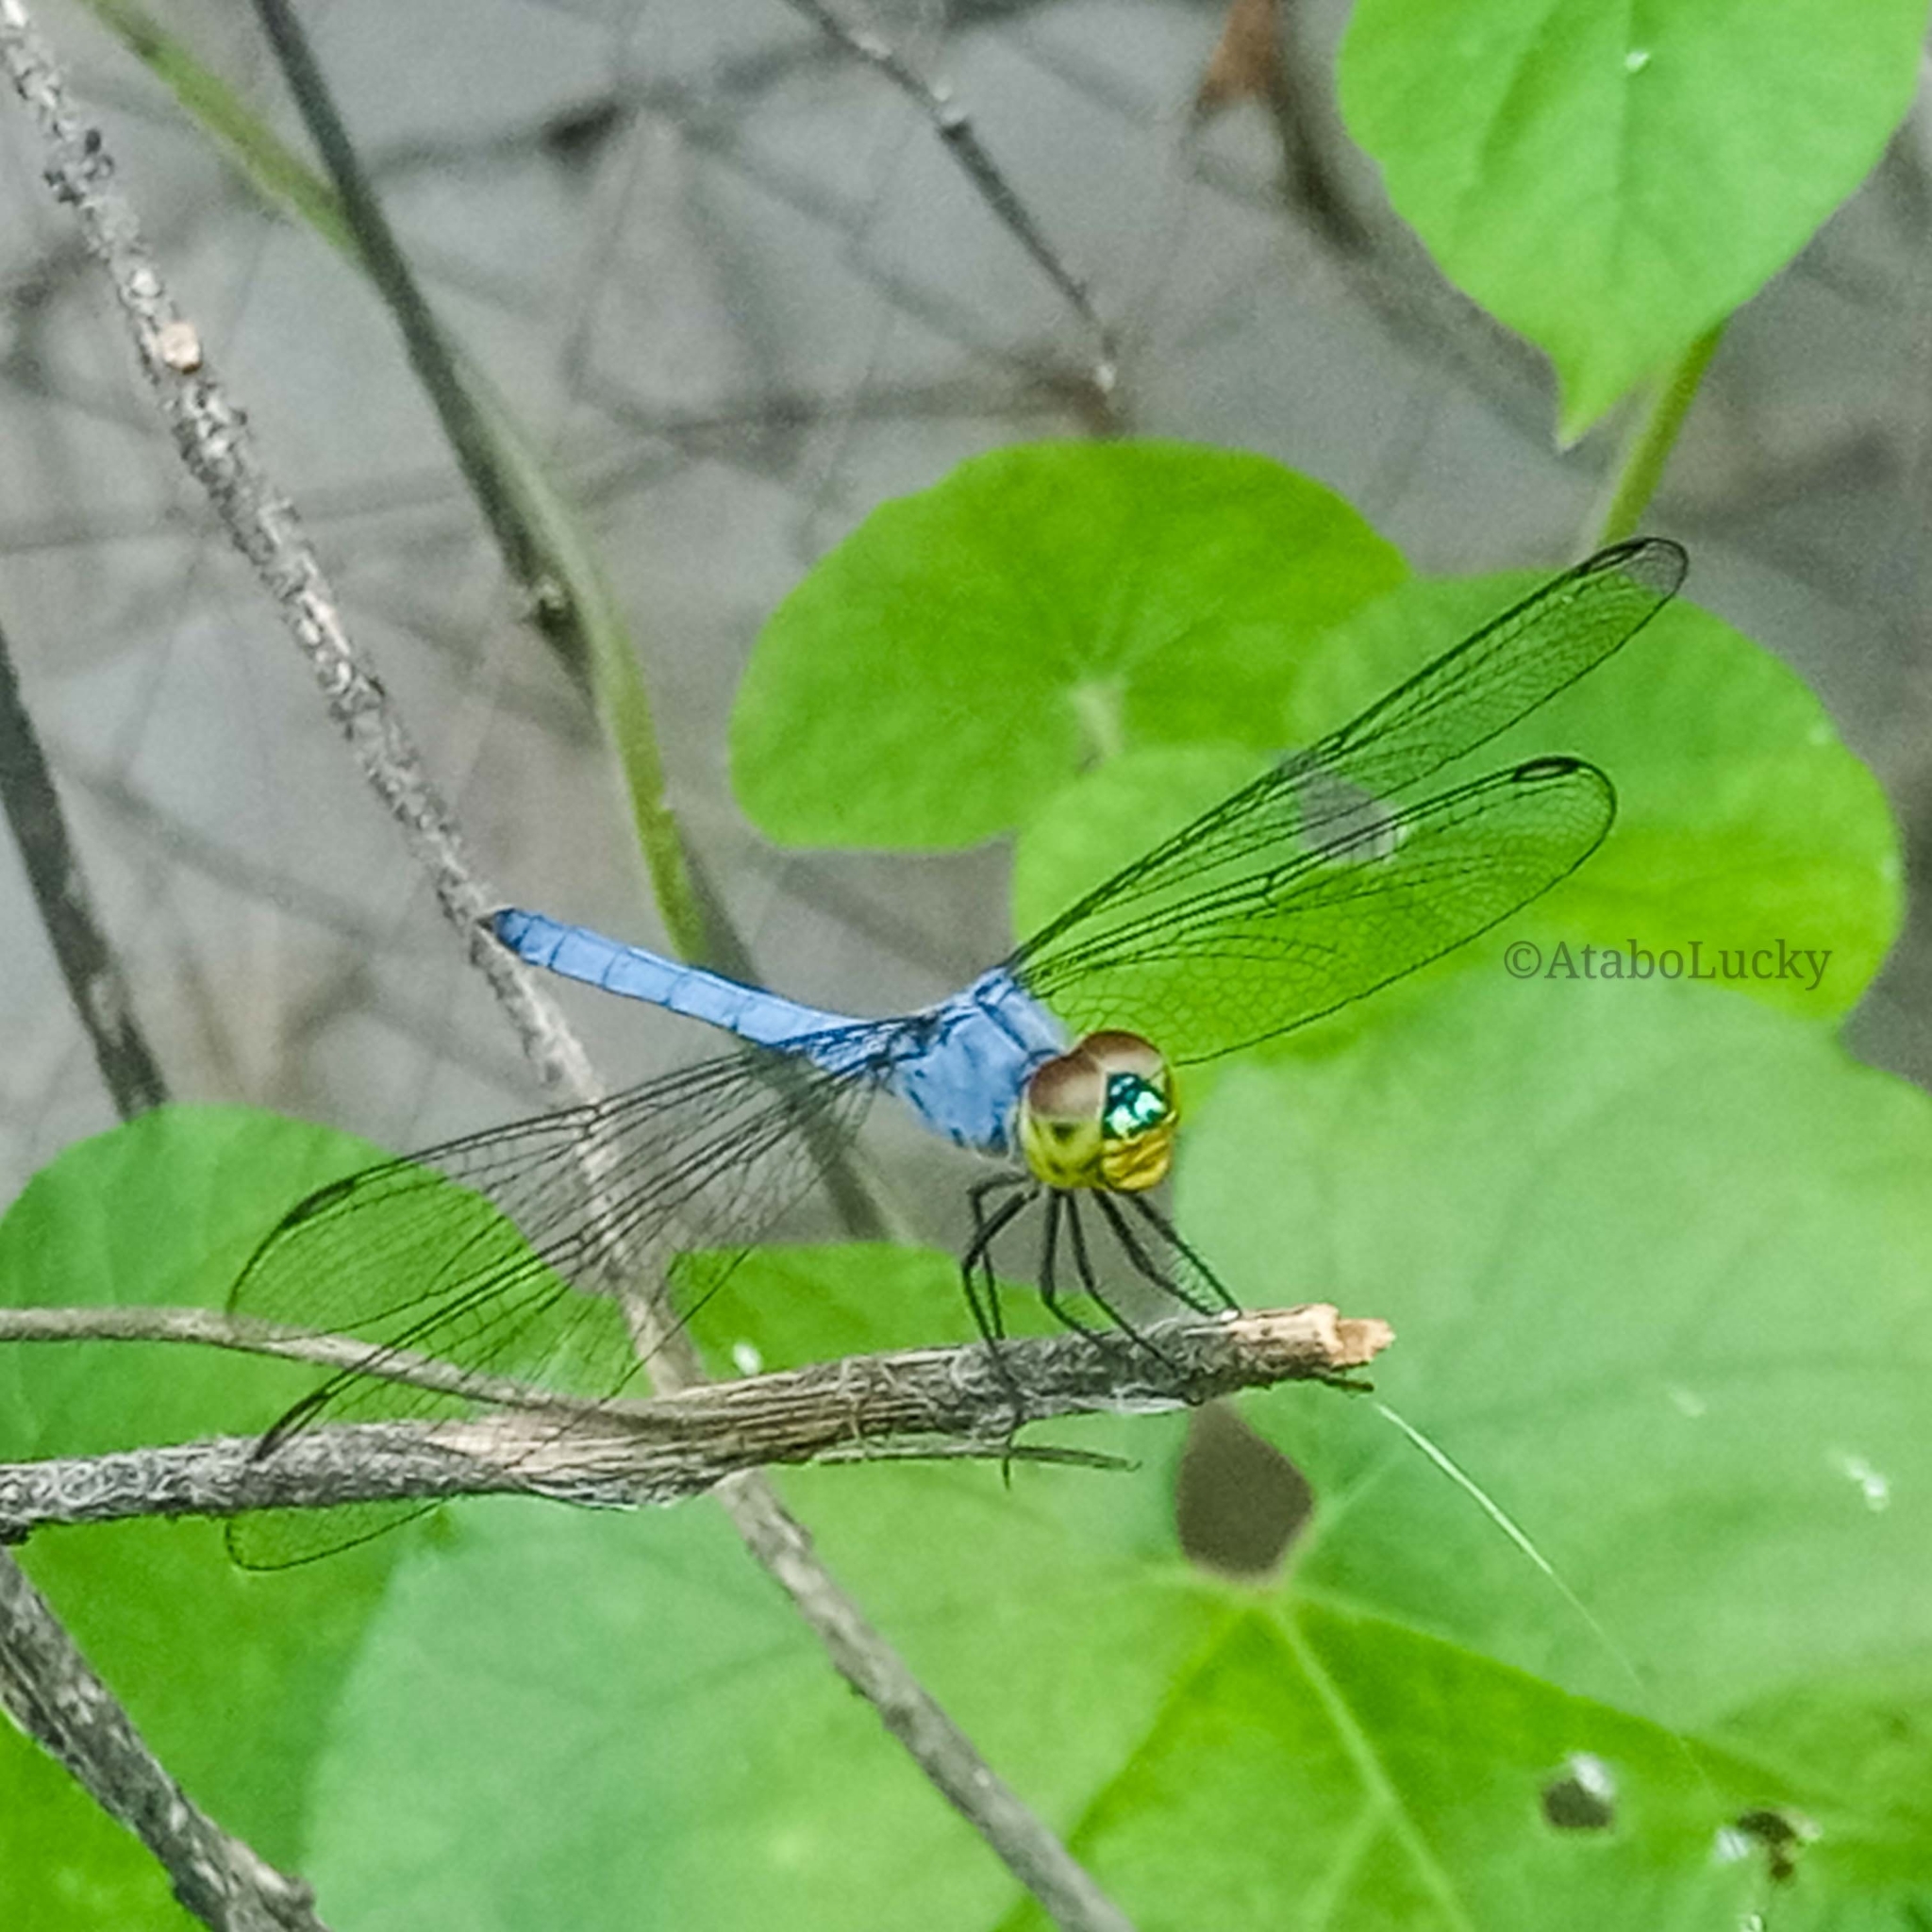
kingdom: Animalia
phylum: Arthropoda
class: Insecta
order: Odonata
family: Libellulidae
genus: Chalcostephia
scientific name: Chalcostephia flavifrons
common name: Inspector
